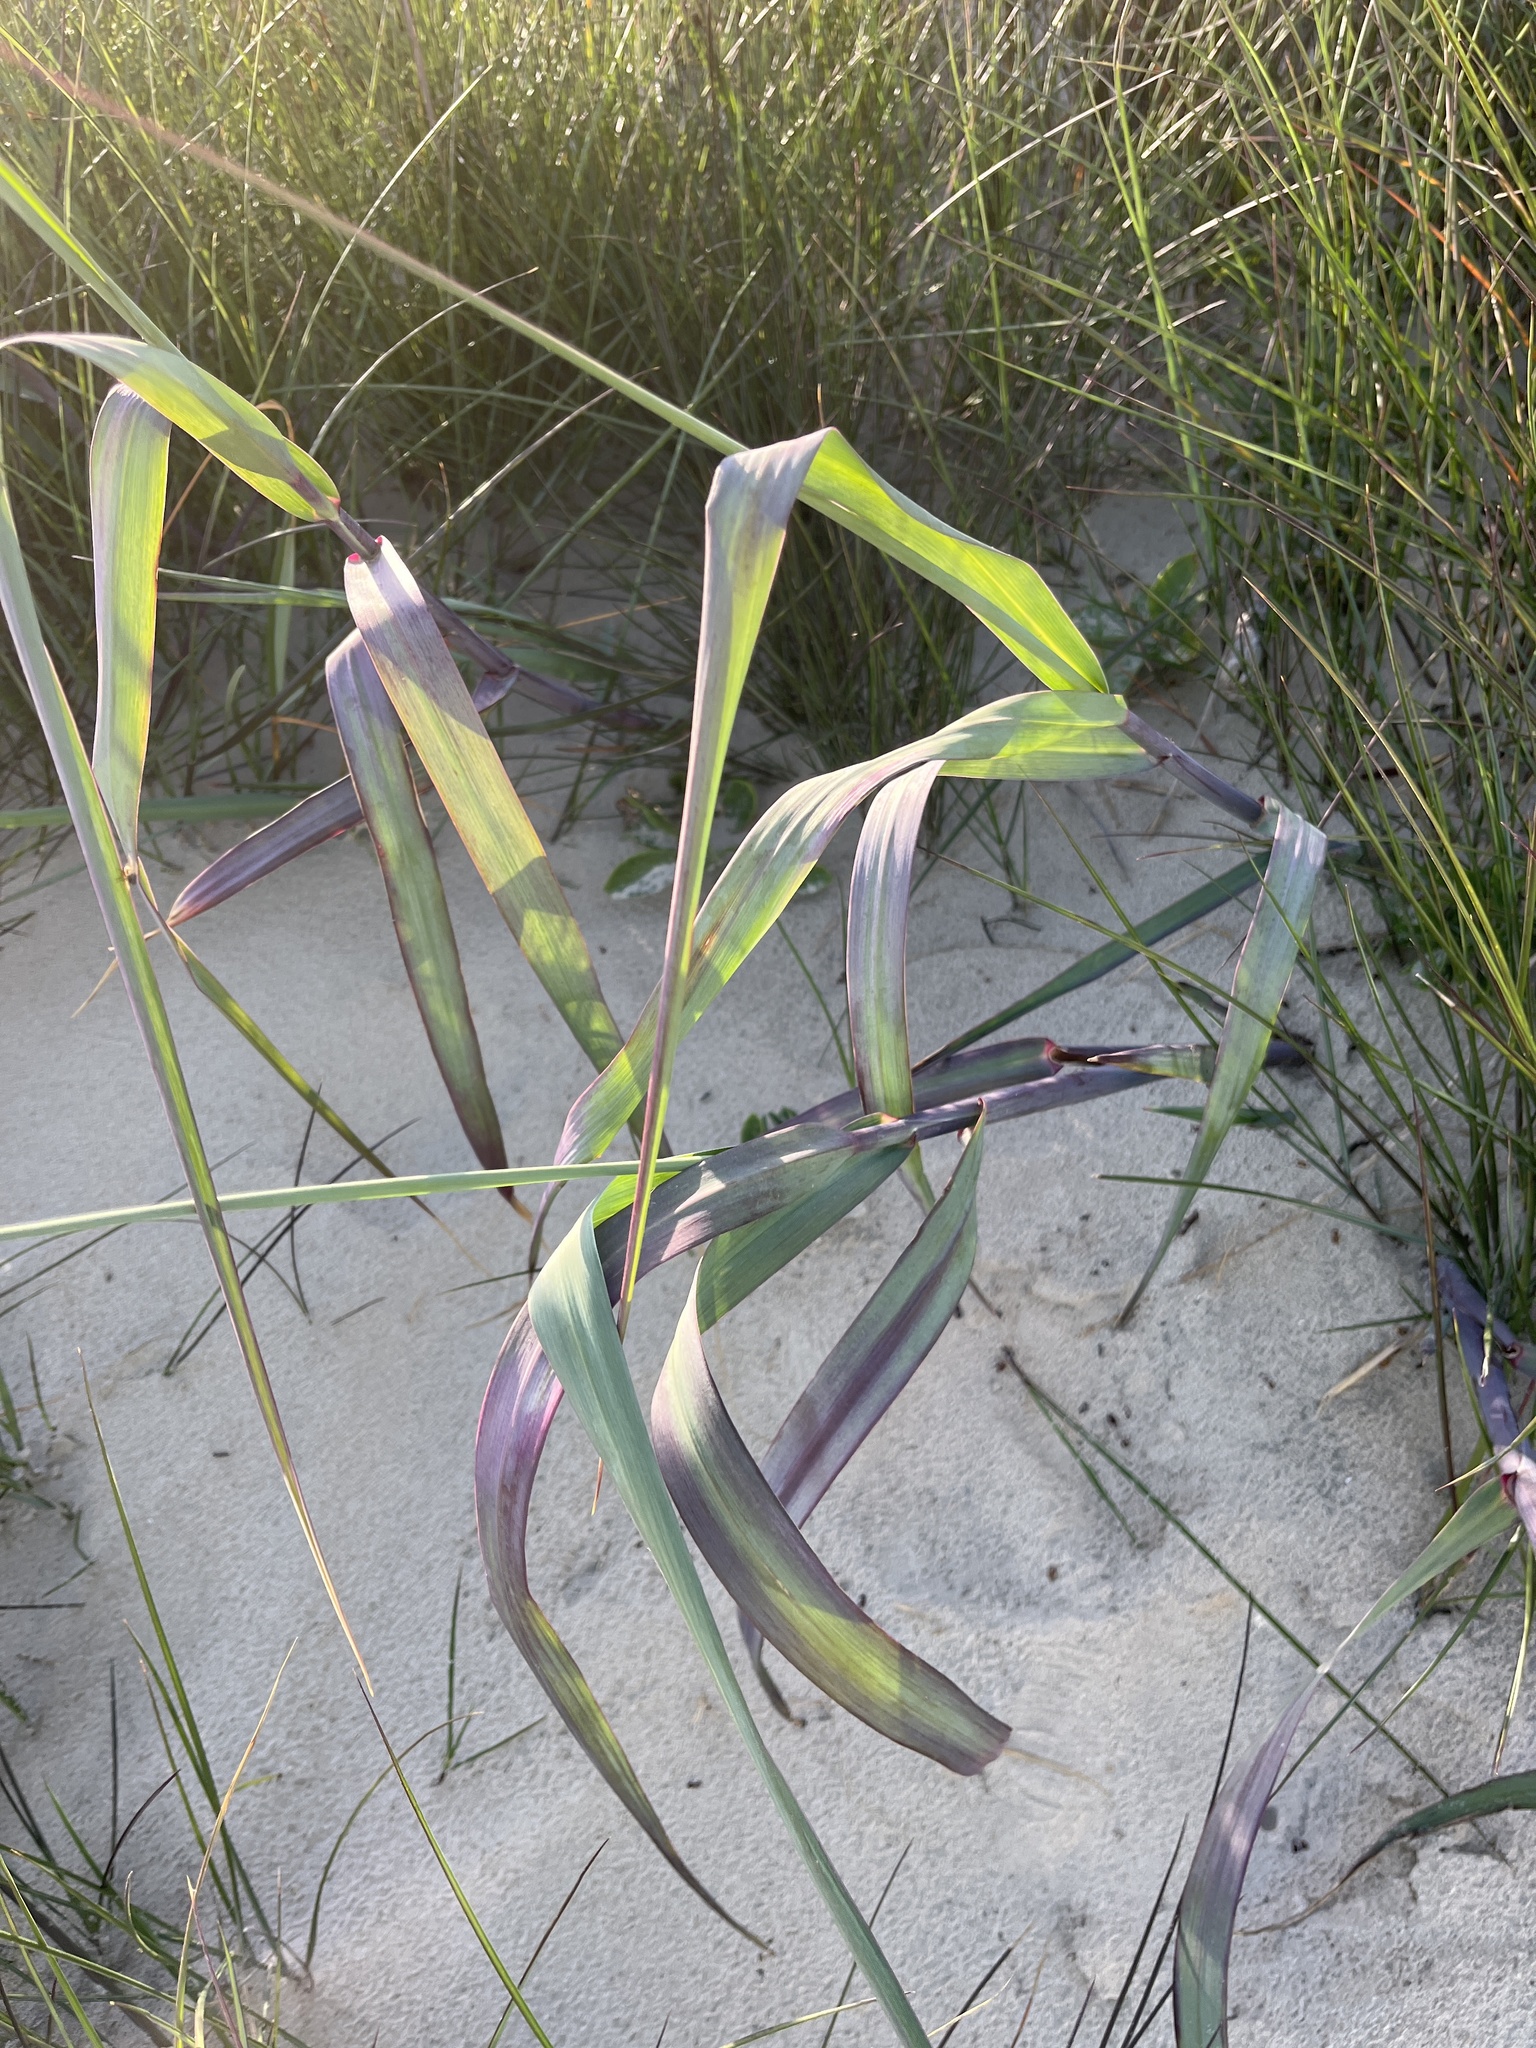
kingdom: Plantae
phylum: Tracheophyta
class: Liliopsida
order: Poales
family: Poaceae
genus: Panicum
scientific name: Panicum amarum
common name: Bitter panicum
